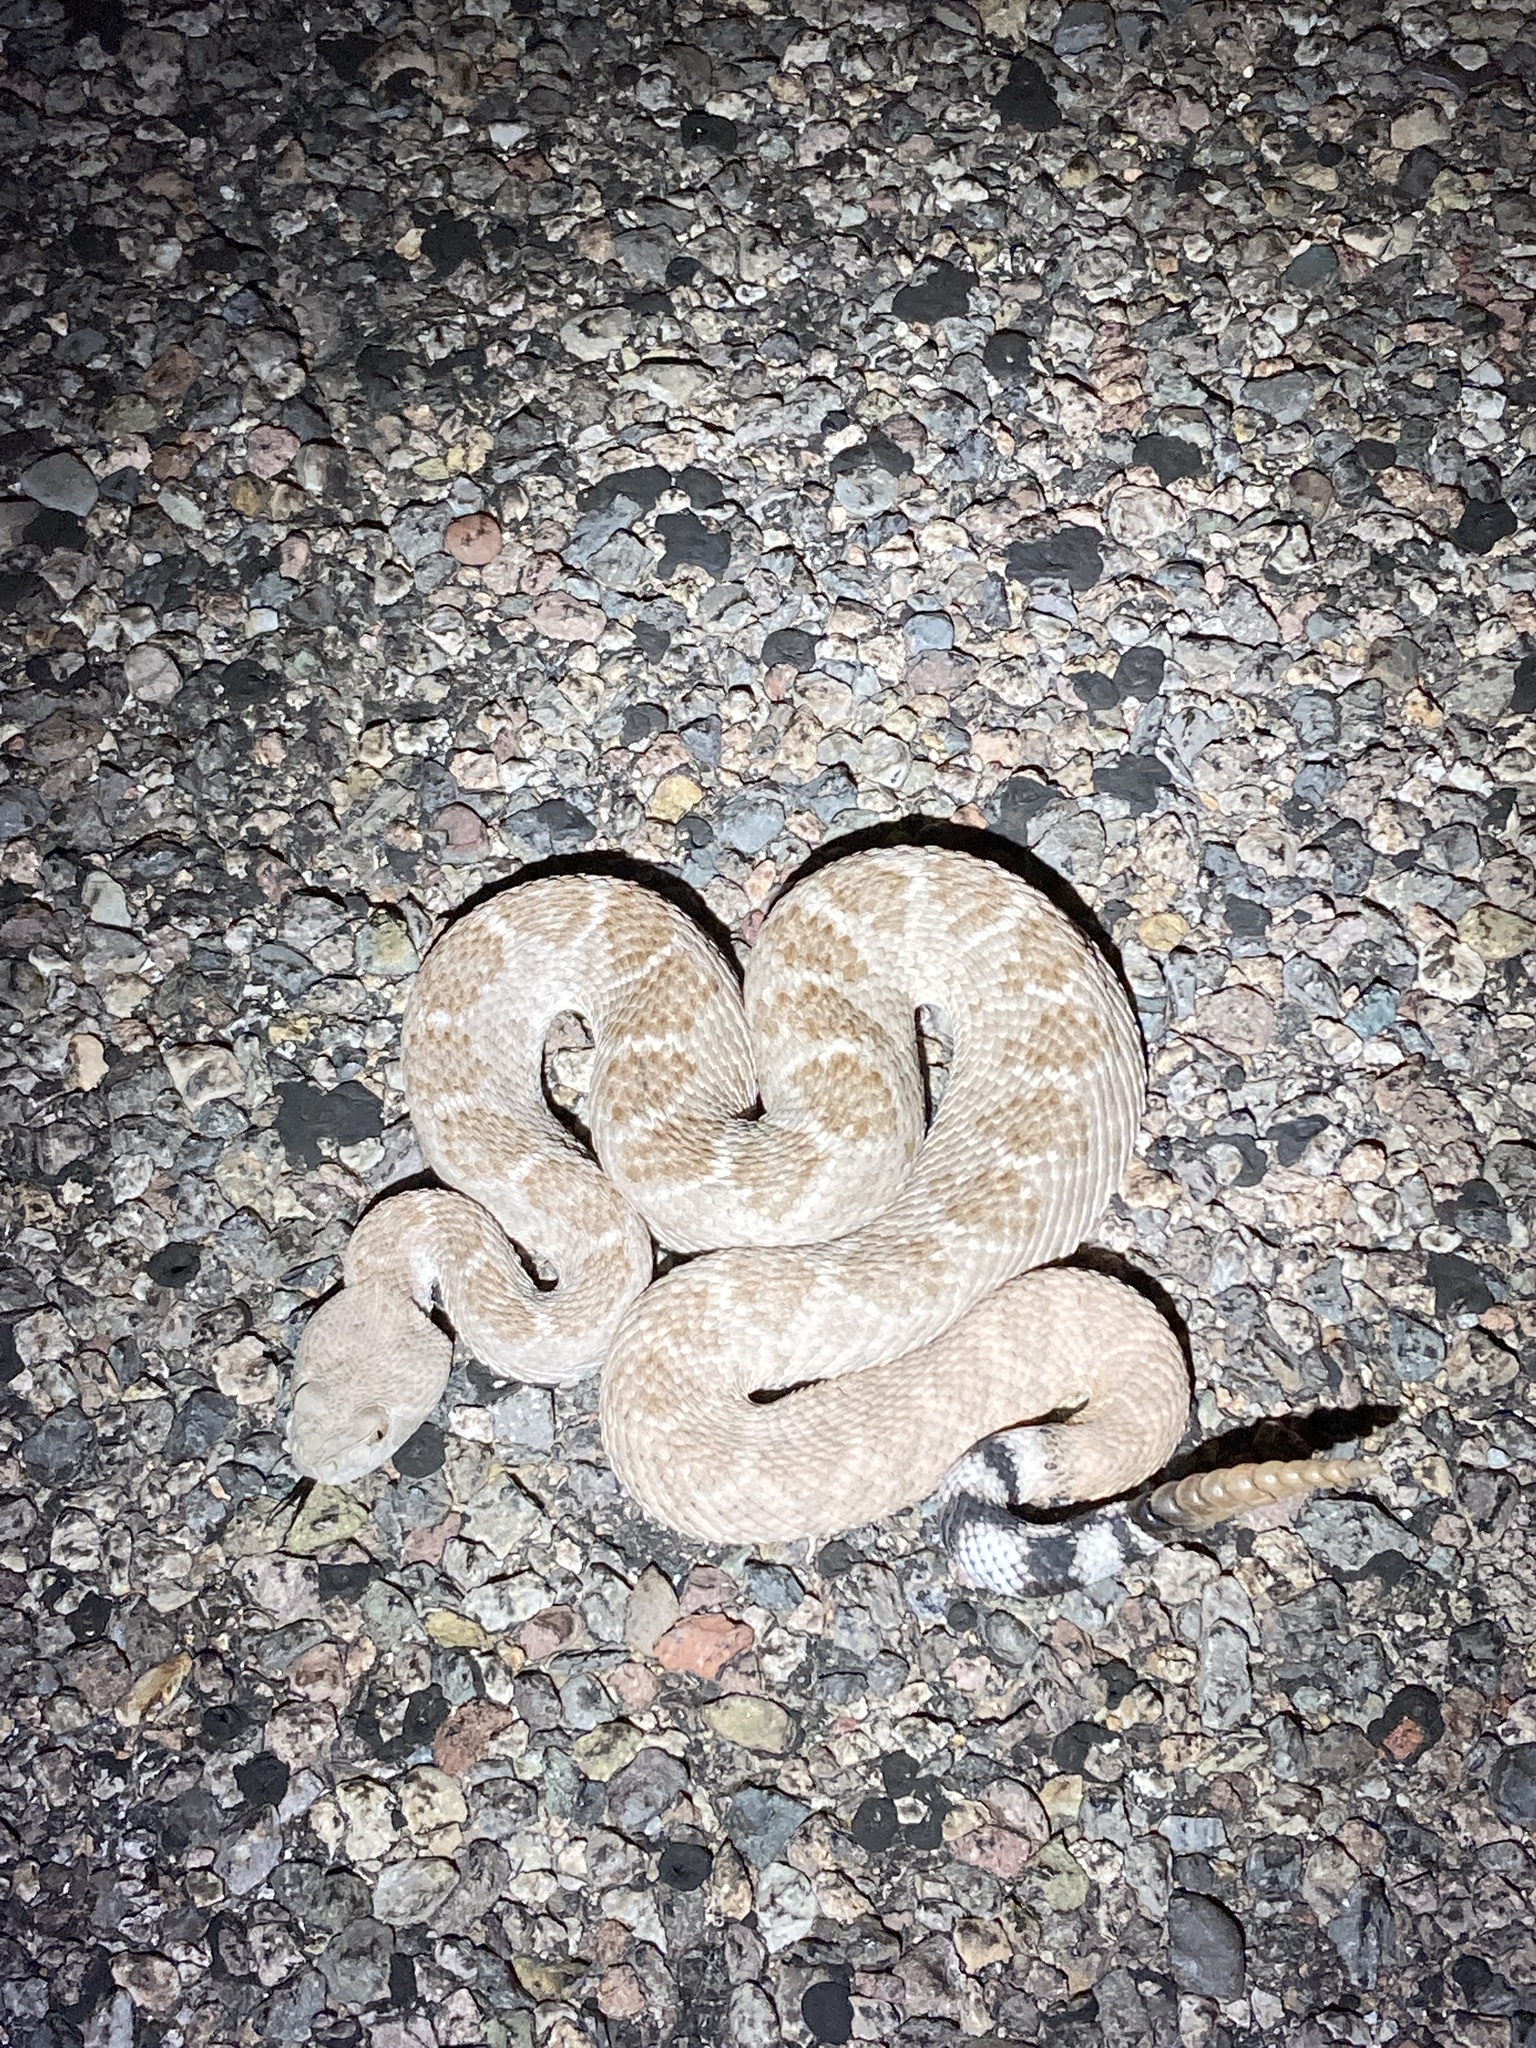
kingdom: Animalia
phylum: Chordata
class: Squamata
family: Viperidae
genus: Crotalus
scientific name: Crotalus atrox
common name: Western diamond-backed rattlesnake
